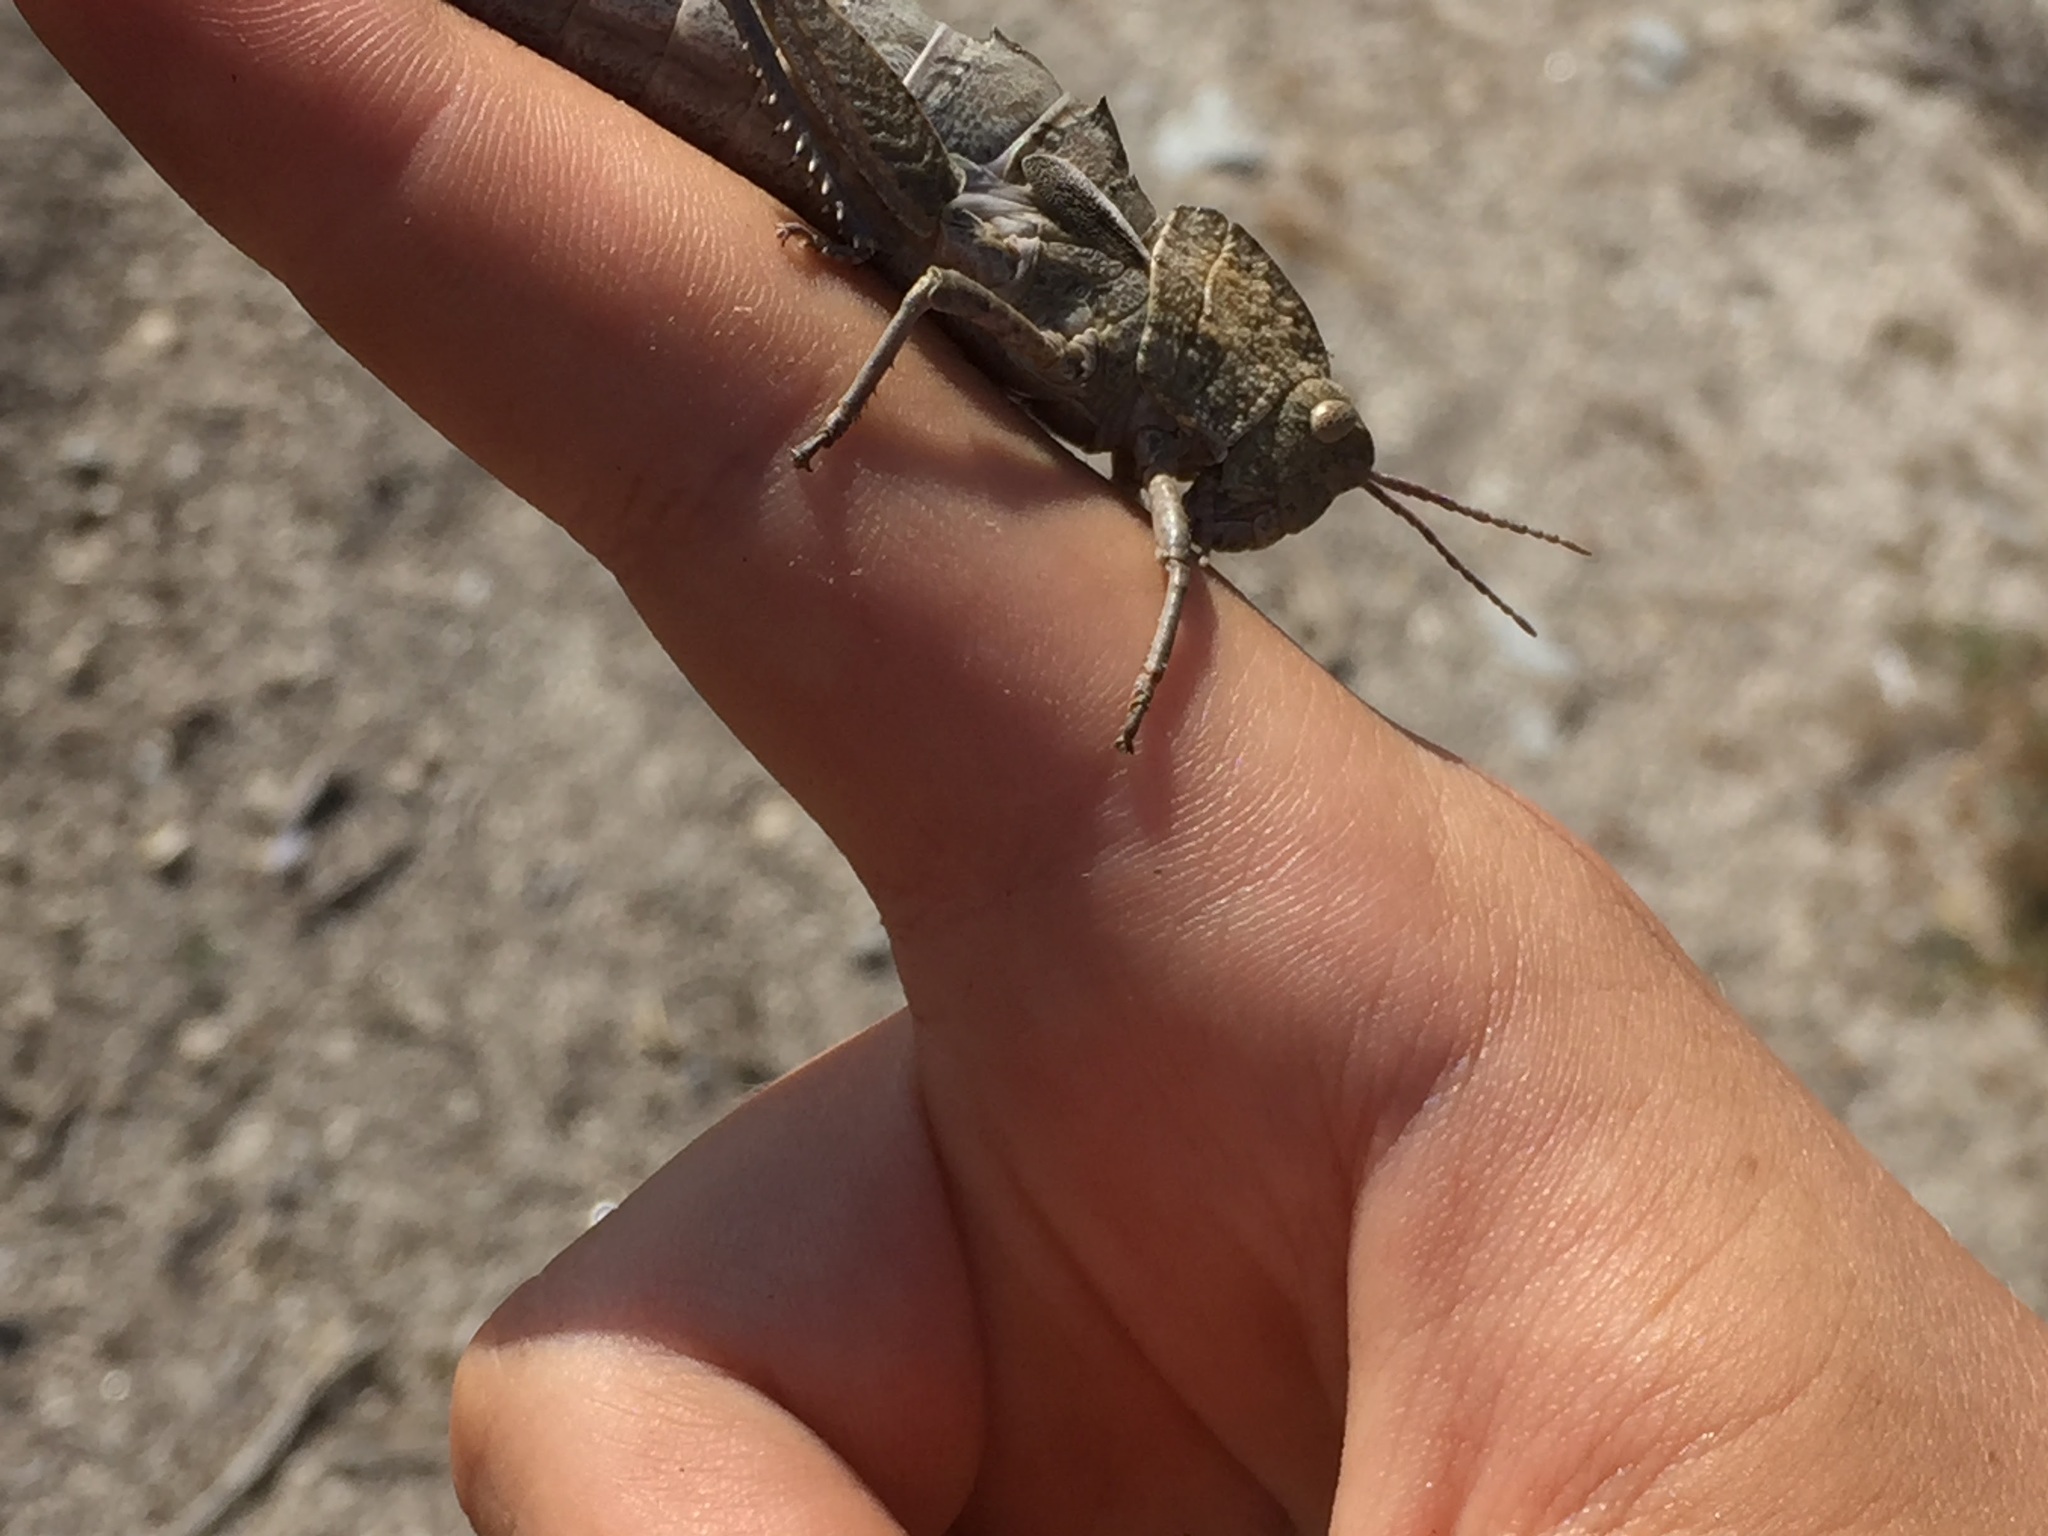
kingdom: Animalia
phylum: Arthropoda
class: Insecta
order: Orthoptera
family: Pamphagidae
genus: Eumigus
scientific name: Eumigus ayresi
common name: Ayres' stone grasshopper
